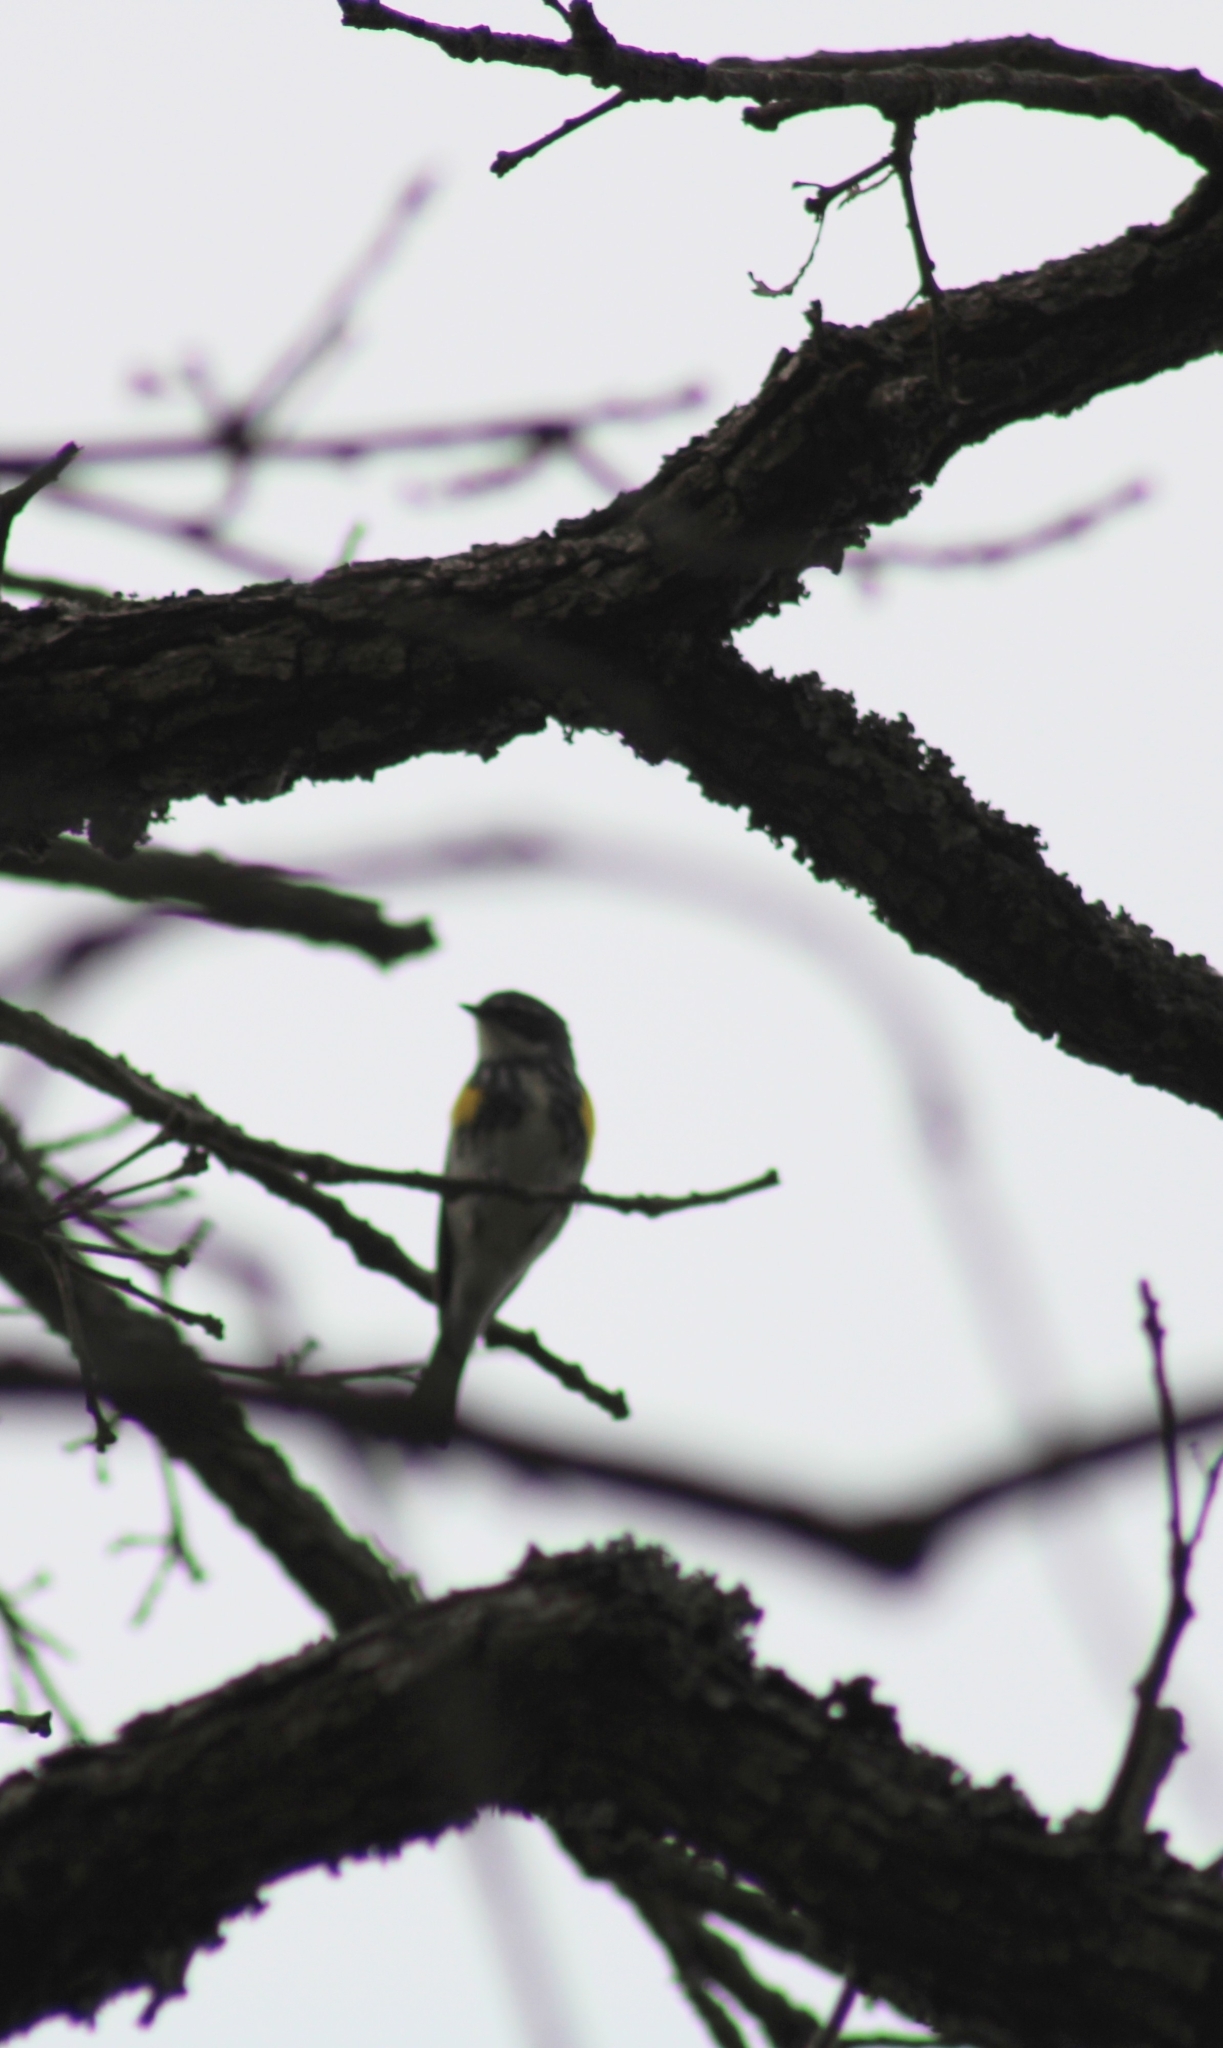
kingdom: Animalia
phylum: Chordata
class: Aves
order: Passeriformes
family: Parulidae
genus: Setophaga
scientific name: Setophaga coronata
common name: Myrtle warbler
